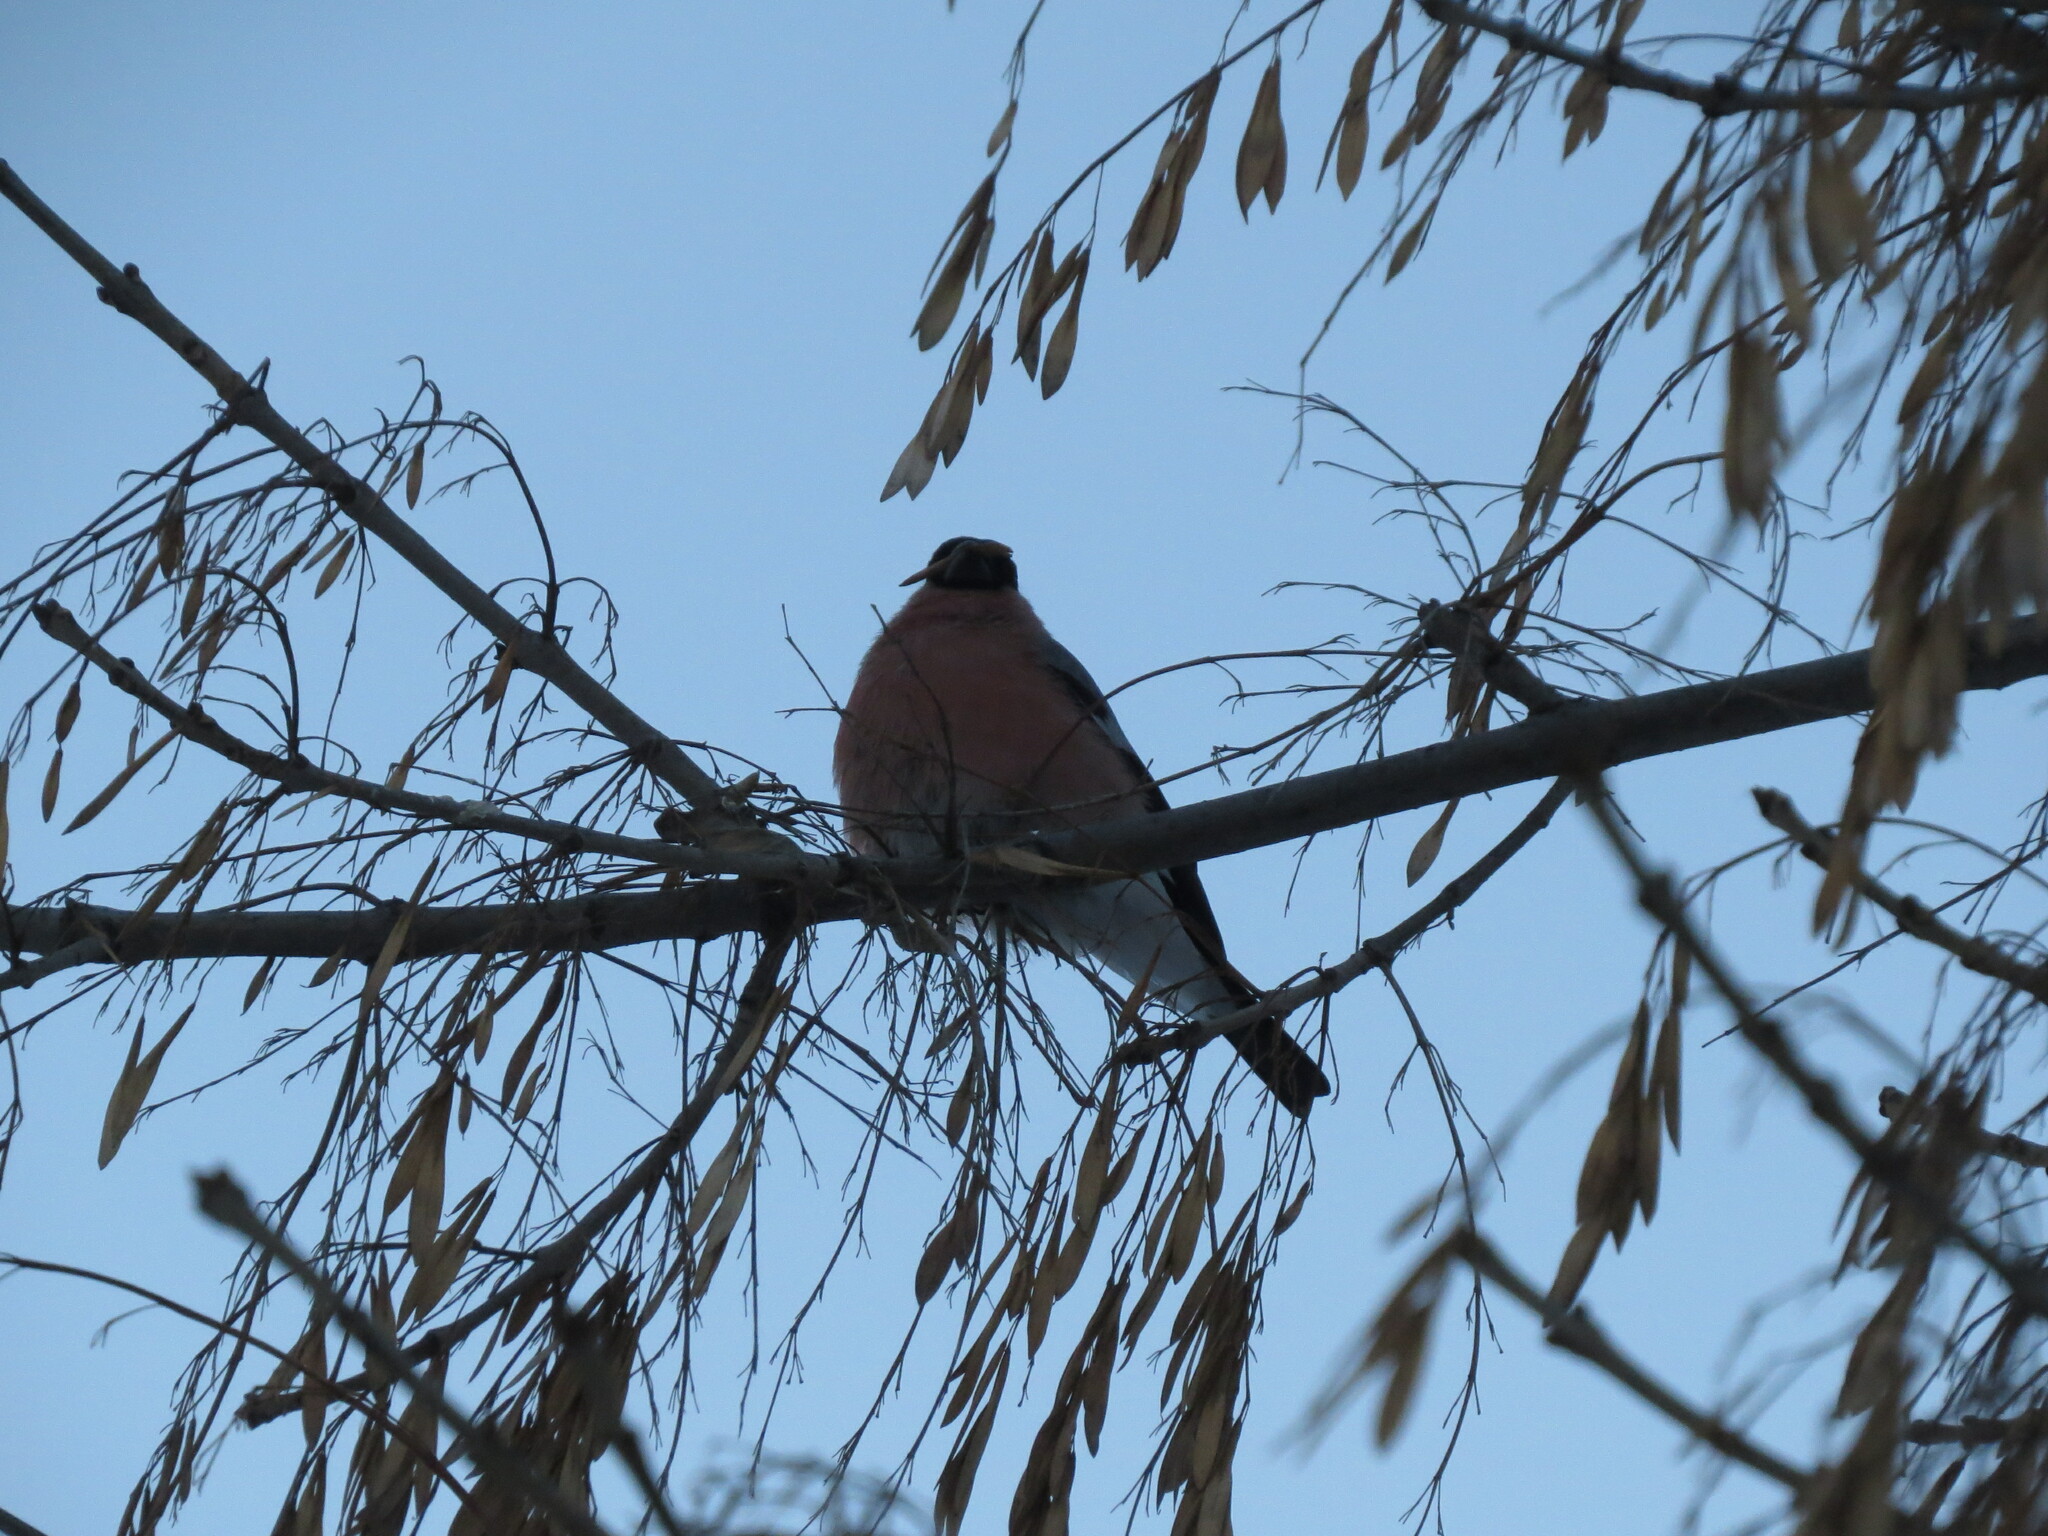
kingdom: Animalia
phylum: Chordata
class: Aves
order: Passeriformes
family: Fringillidae
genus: Pyrrhula
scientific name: Pyrrhula pyrrhula
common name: Eurasian bullfinch
